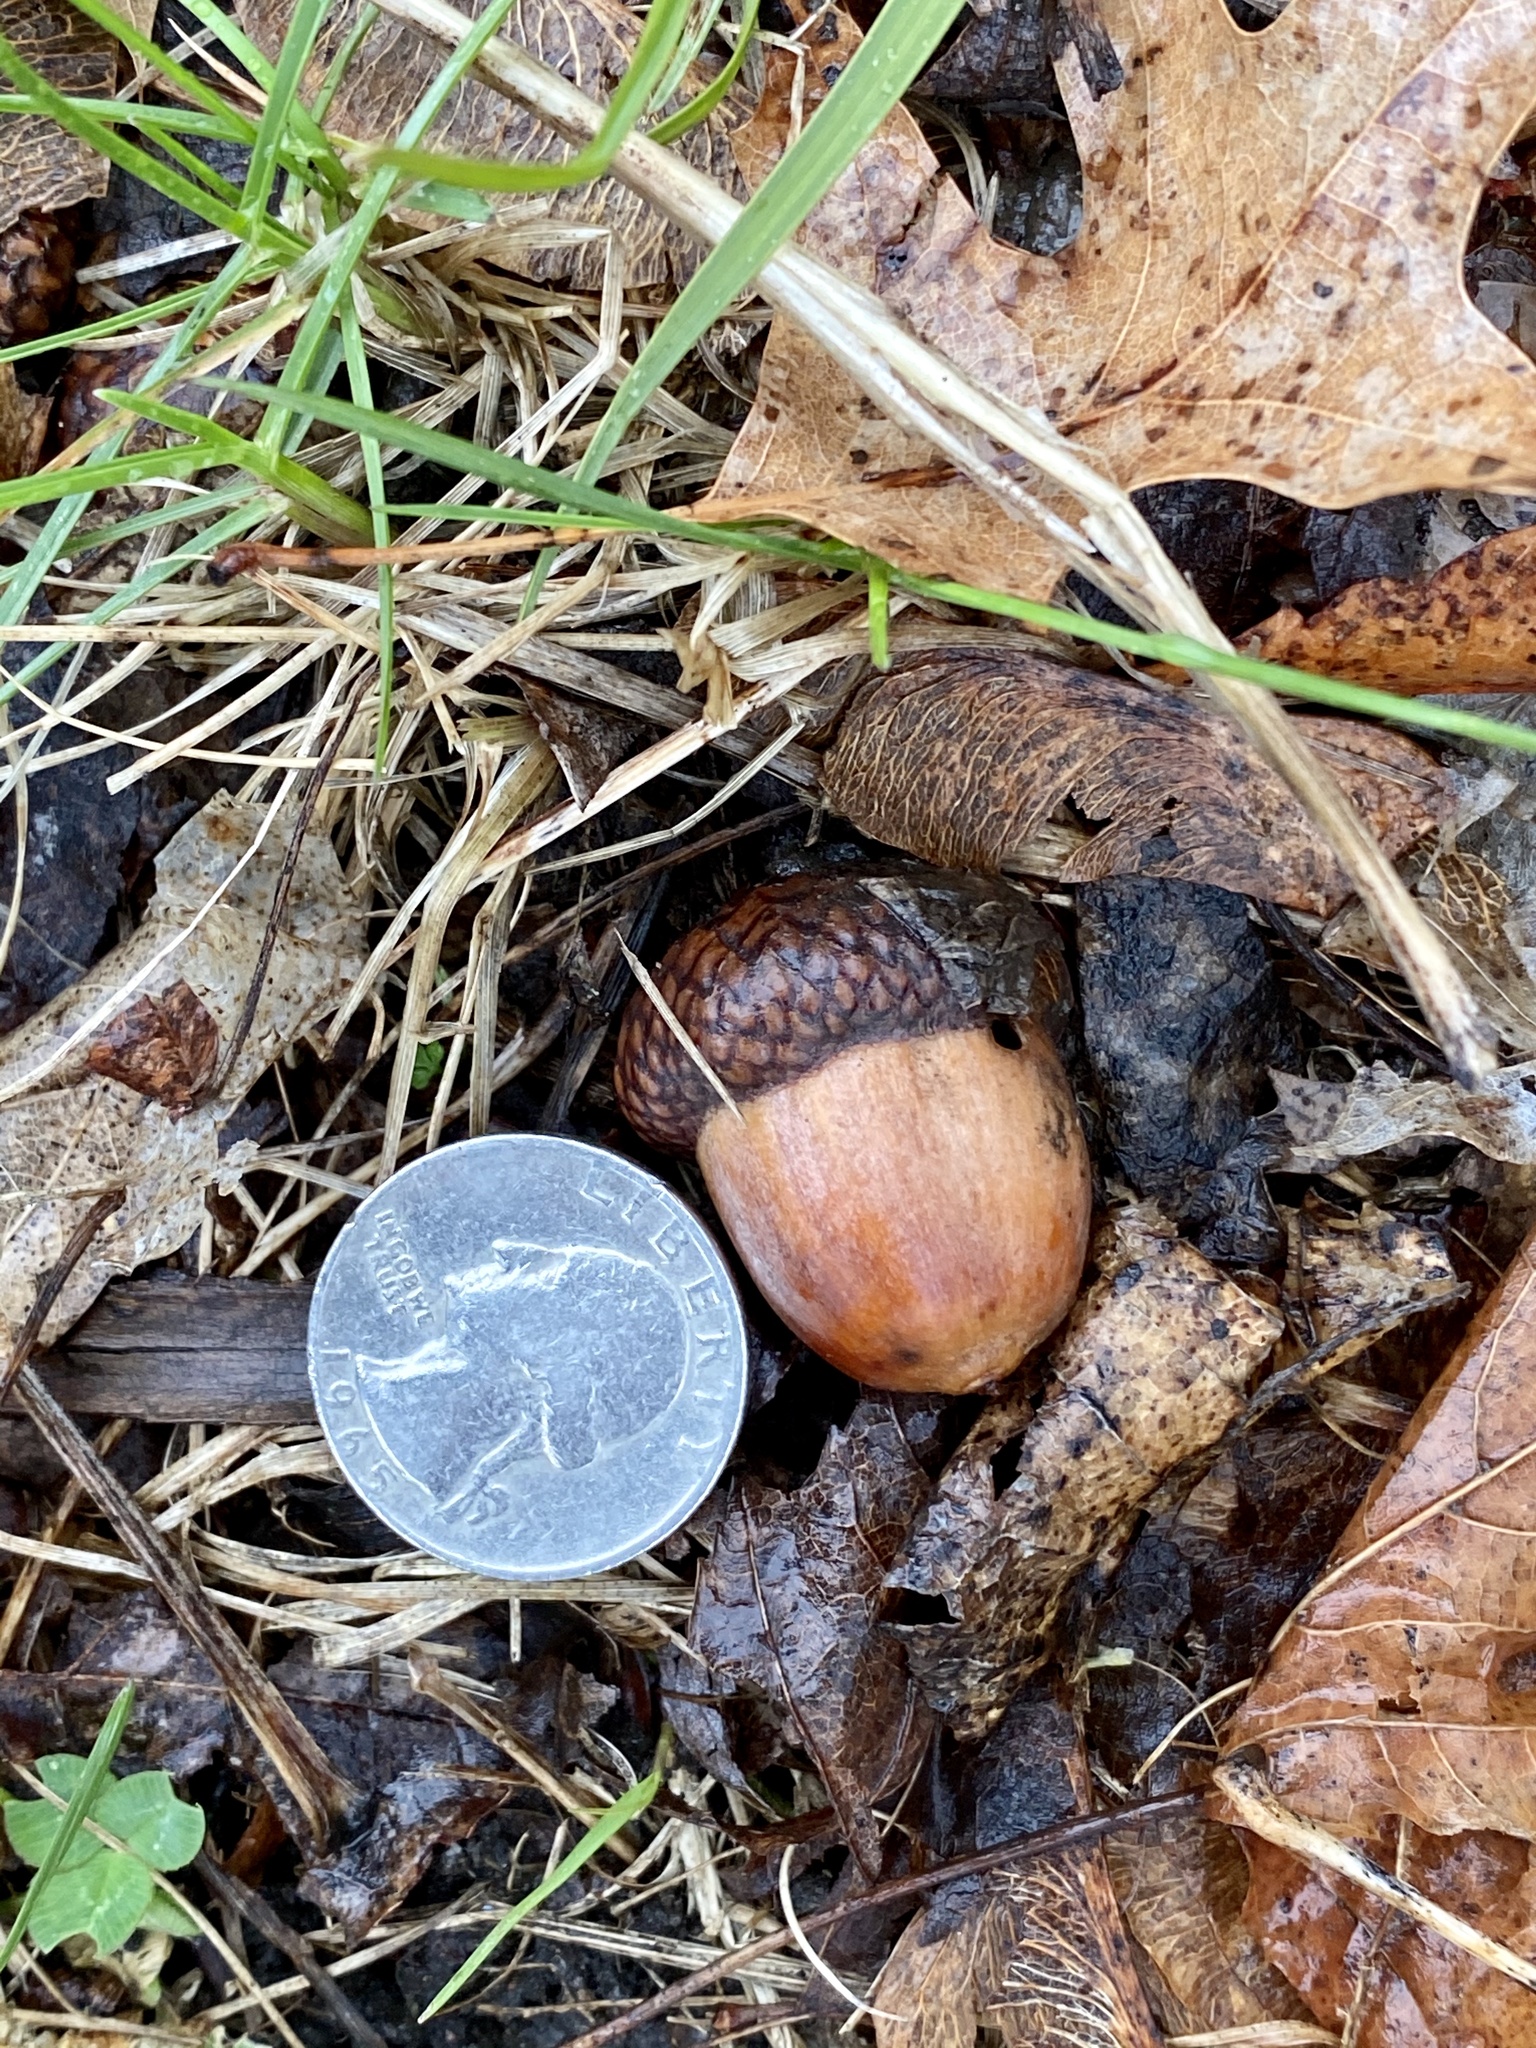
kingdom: Plantae
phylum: Tracheophyta
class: Magnoliopsida
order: Fagales
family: Fagaceae
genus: Quercus
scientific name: Quercus rubra
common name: Red oak
